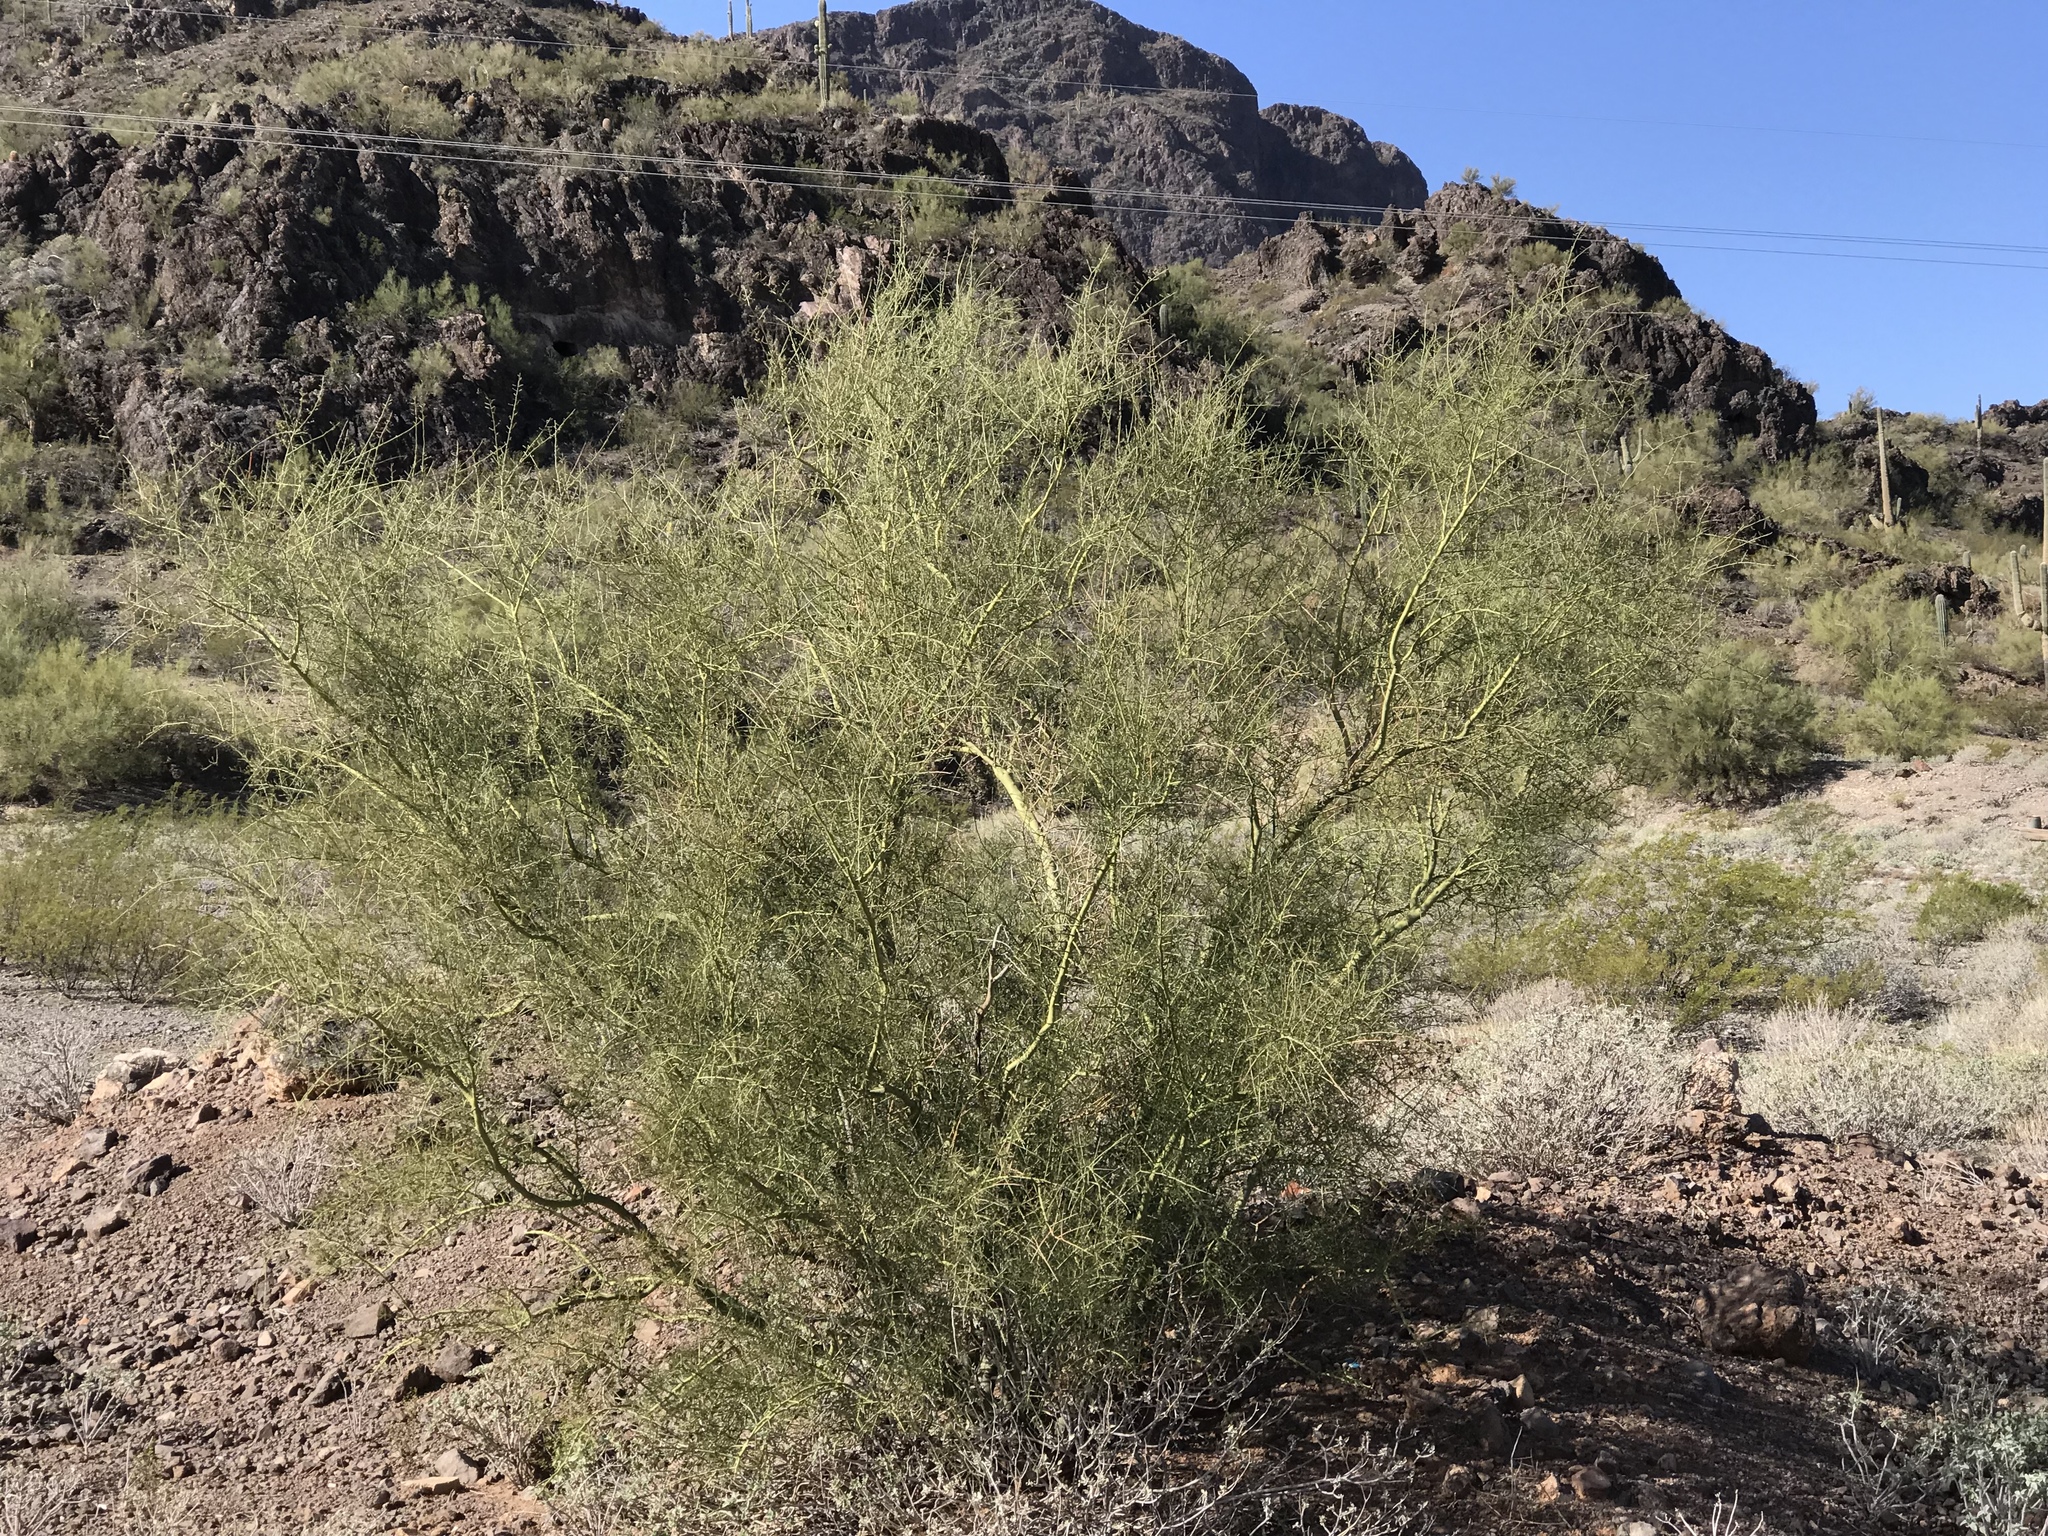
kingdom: Plantae
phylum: Tracheophyta
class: Magnoliopsida
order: Fabales
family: Fabaceae
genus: Parkinsonia
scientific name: Parkinsonia microphylla
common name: Yellow paloverde
